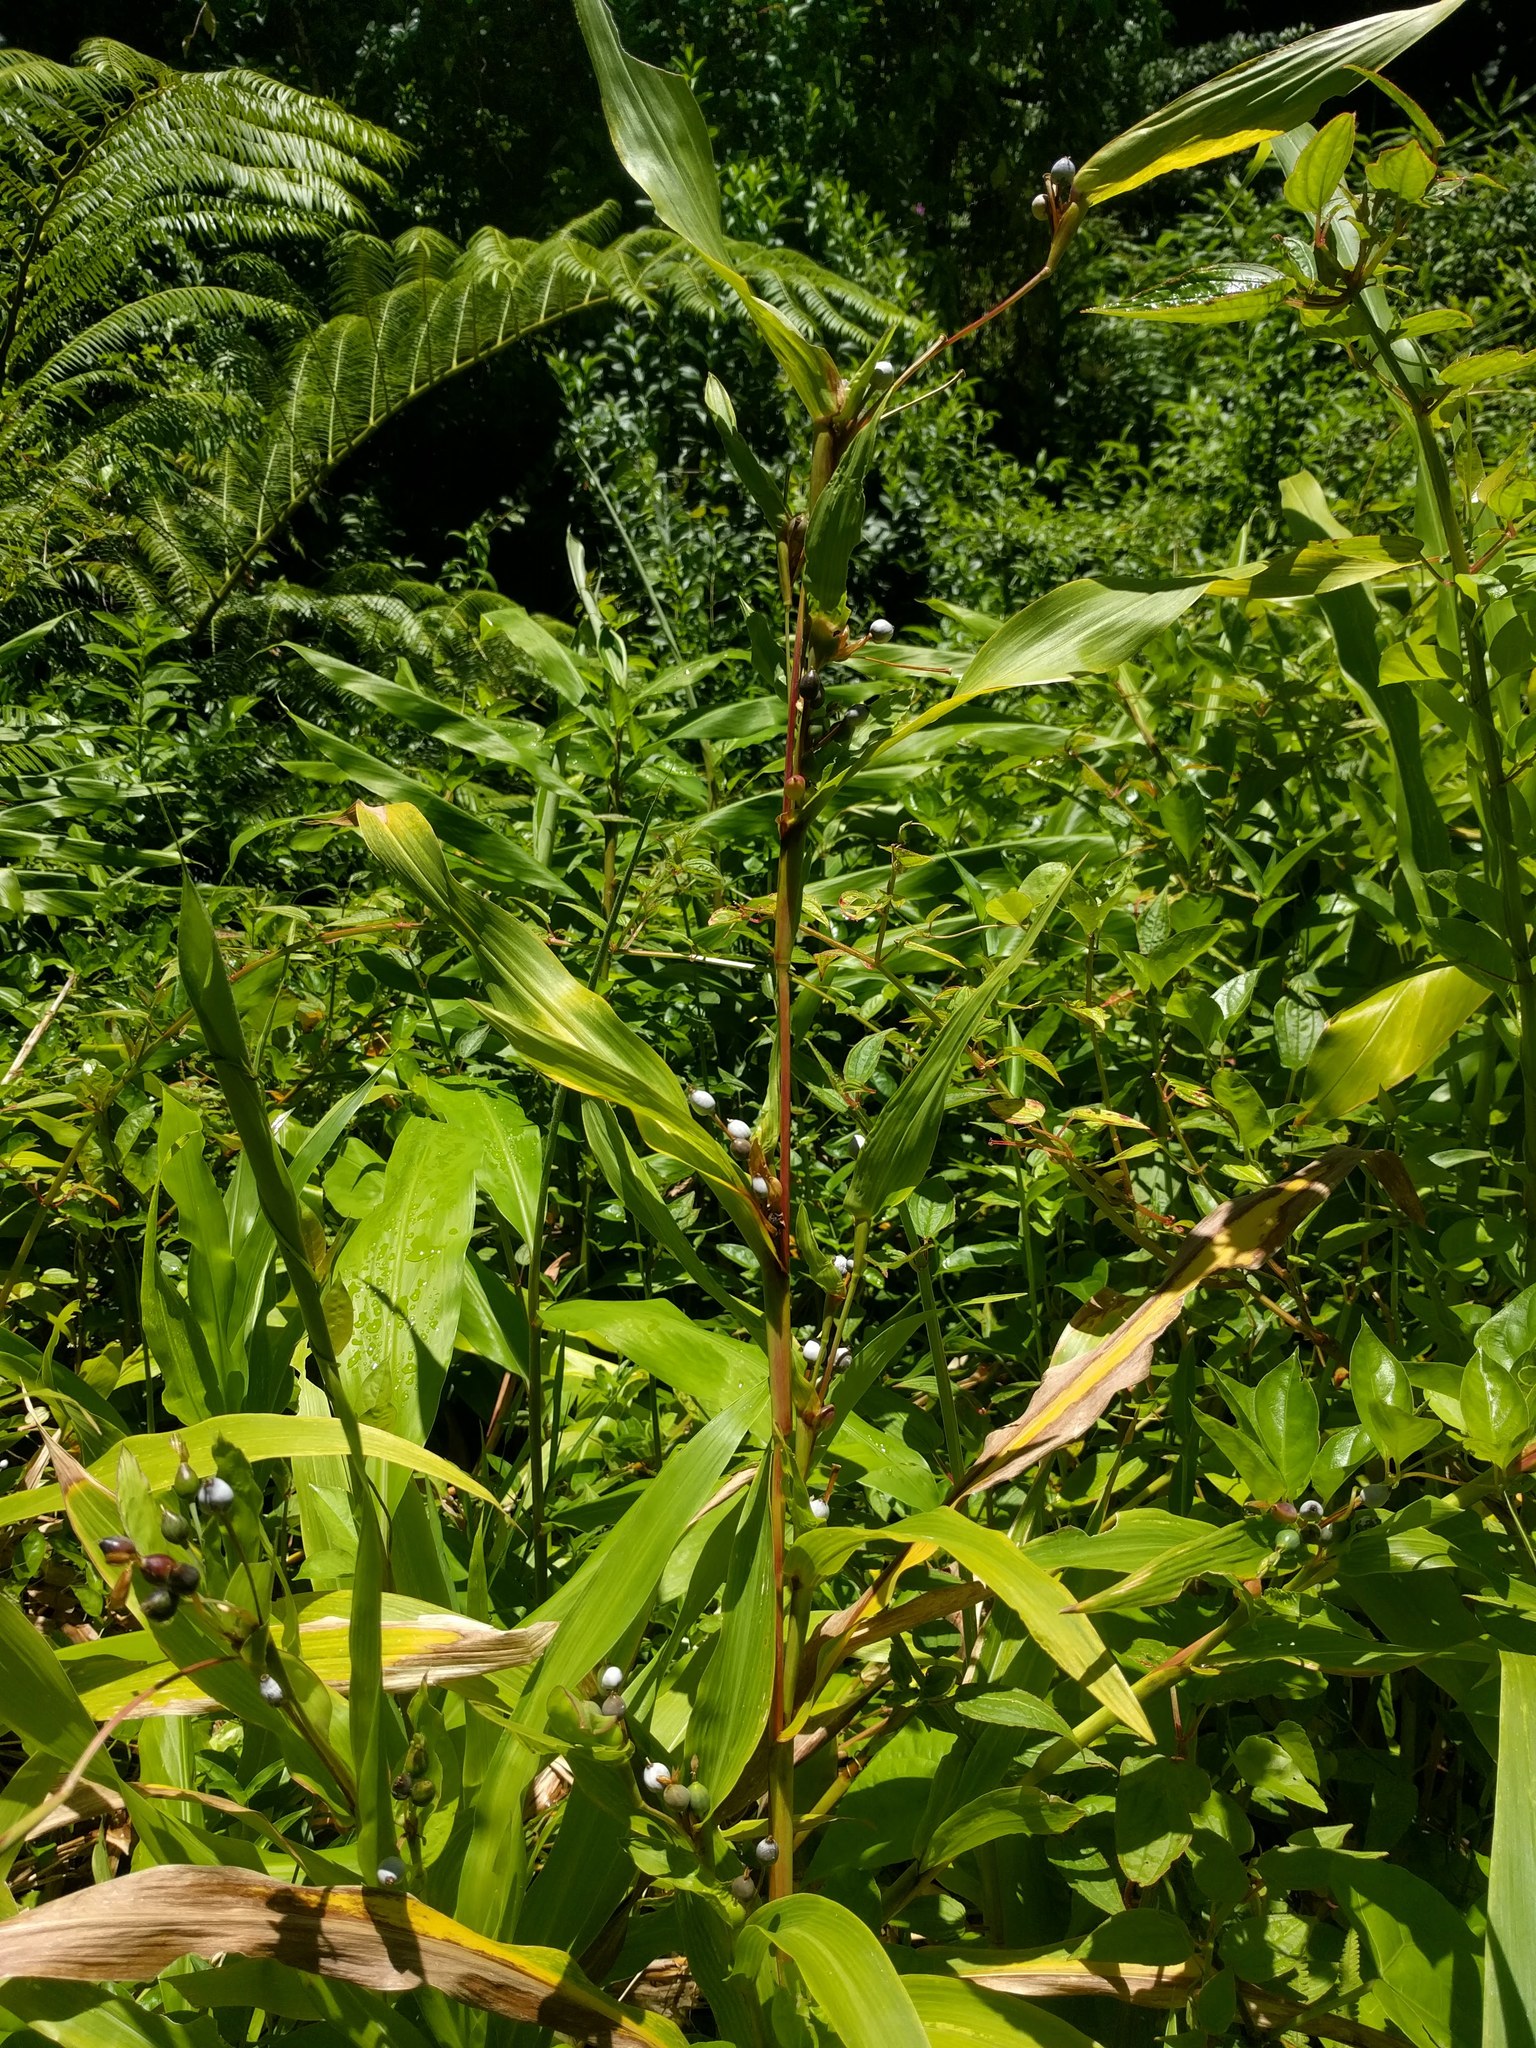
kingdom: Plantae
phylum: Tracheophyta
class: Liliopsida
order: Poales
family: Poaceae
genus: Coix
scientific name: Coix lacryma-jobi
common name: Job's tears
